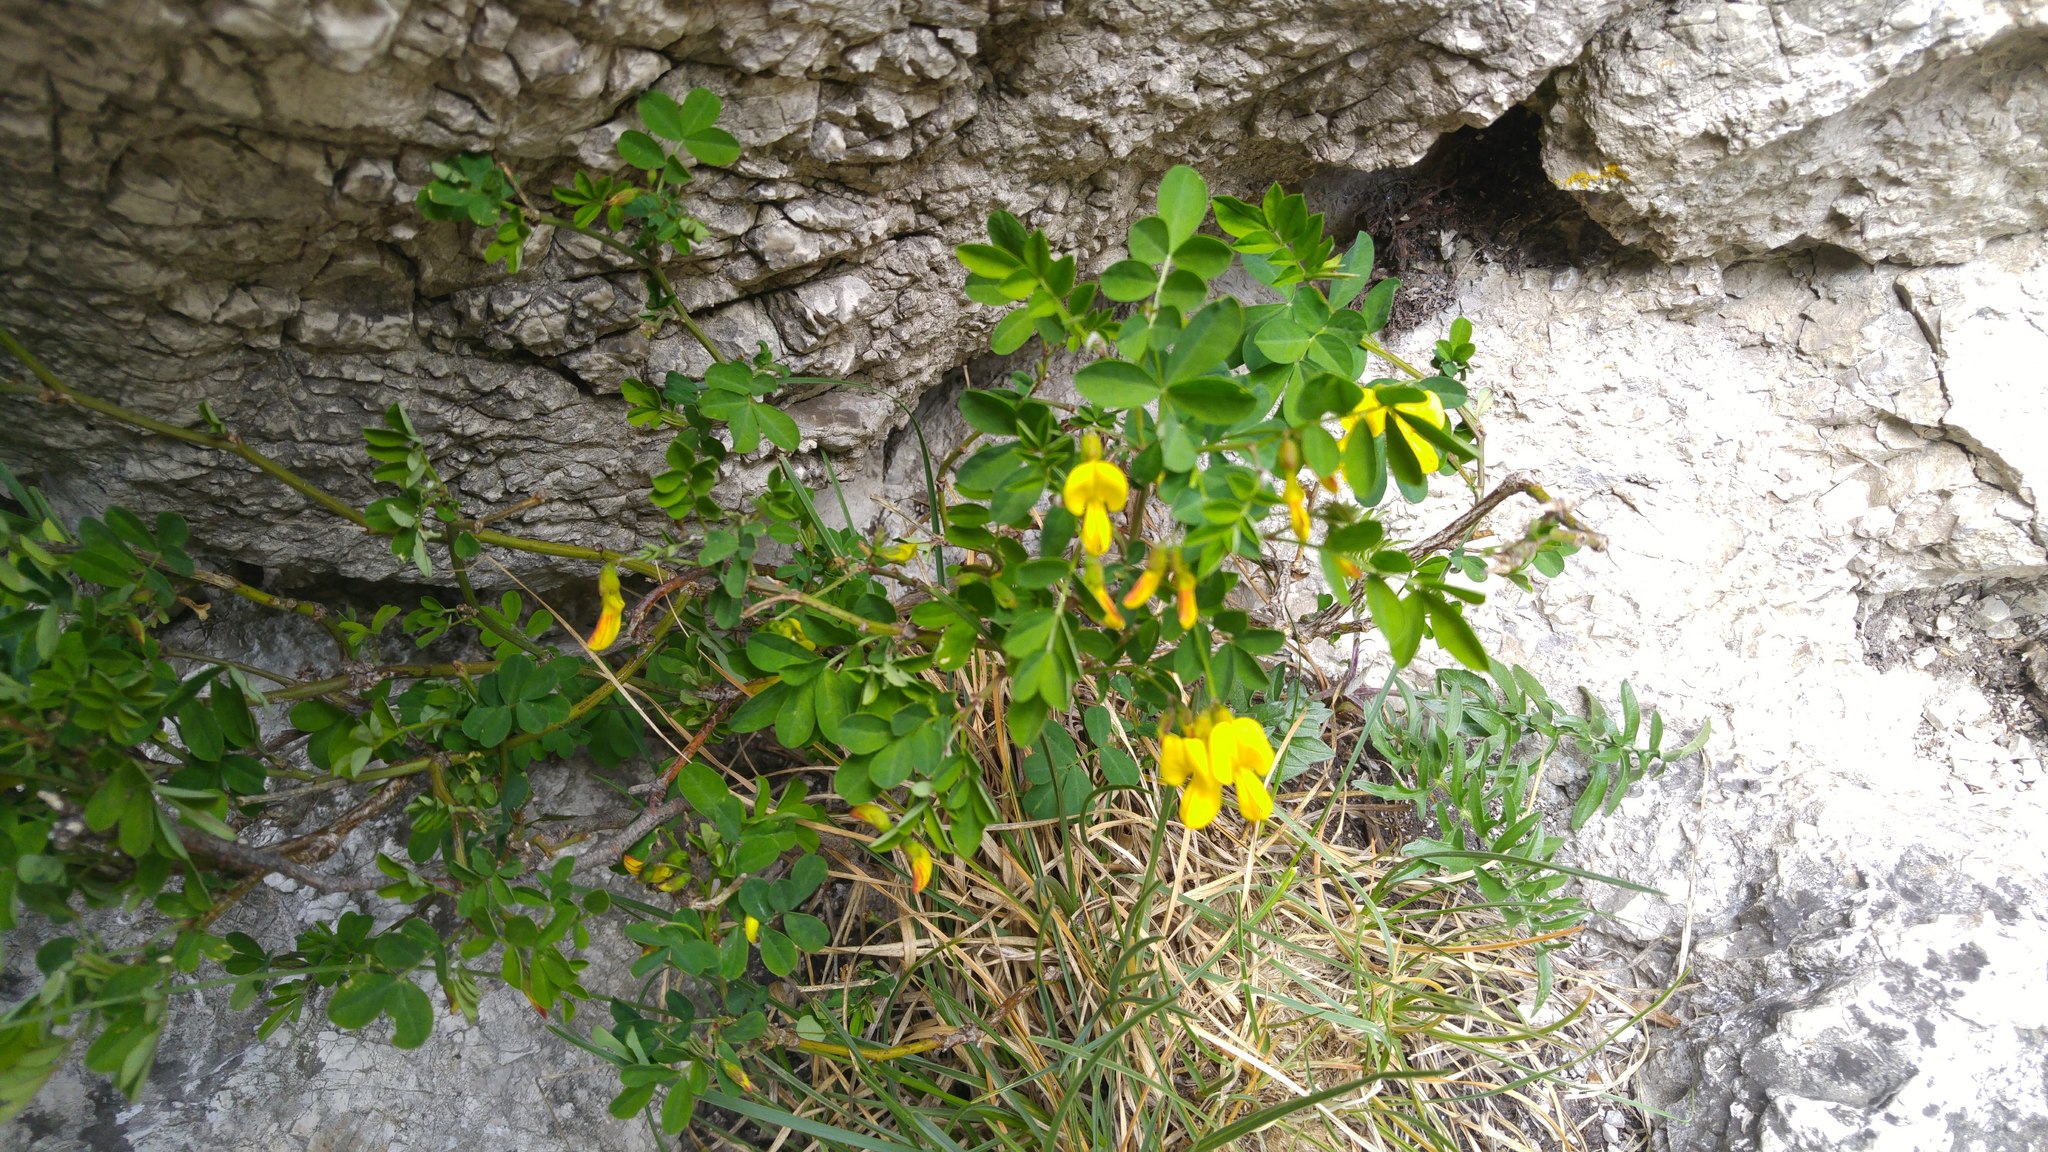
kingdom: Plantae
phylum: Tracheophyta
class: Magnoliopsida
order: Fabales
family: Fabaceae
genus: Hippocrepis
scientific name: Hippocrepis emerus
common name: Scorpion senna
